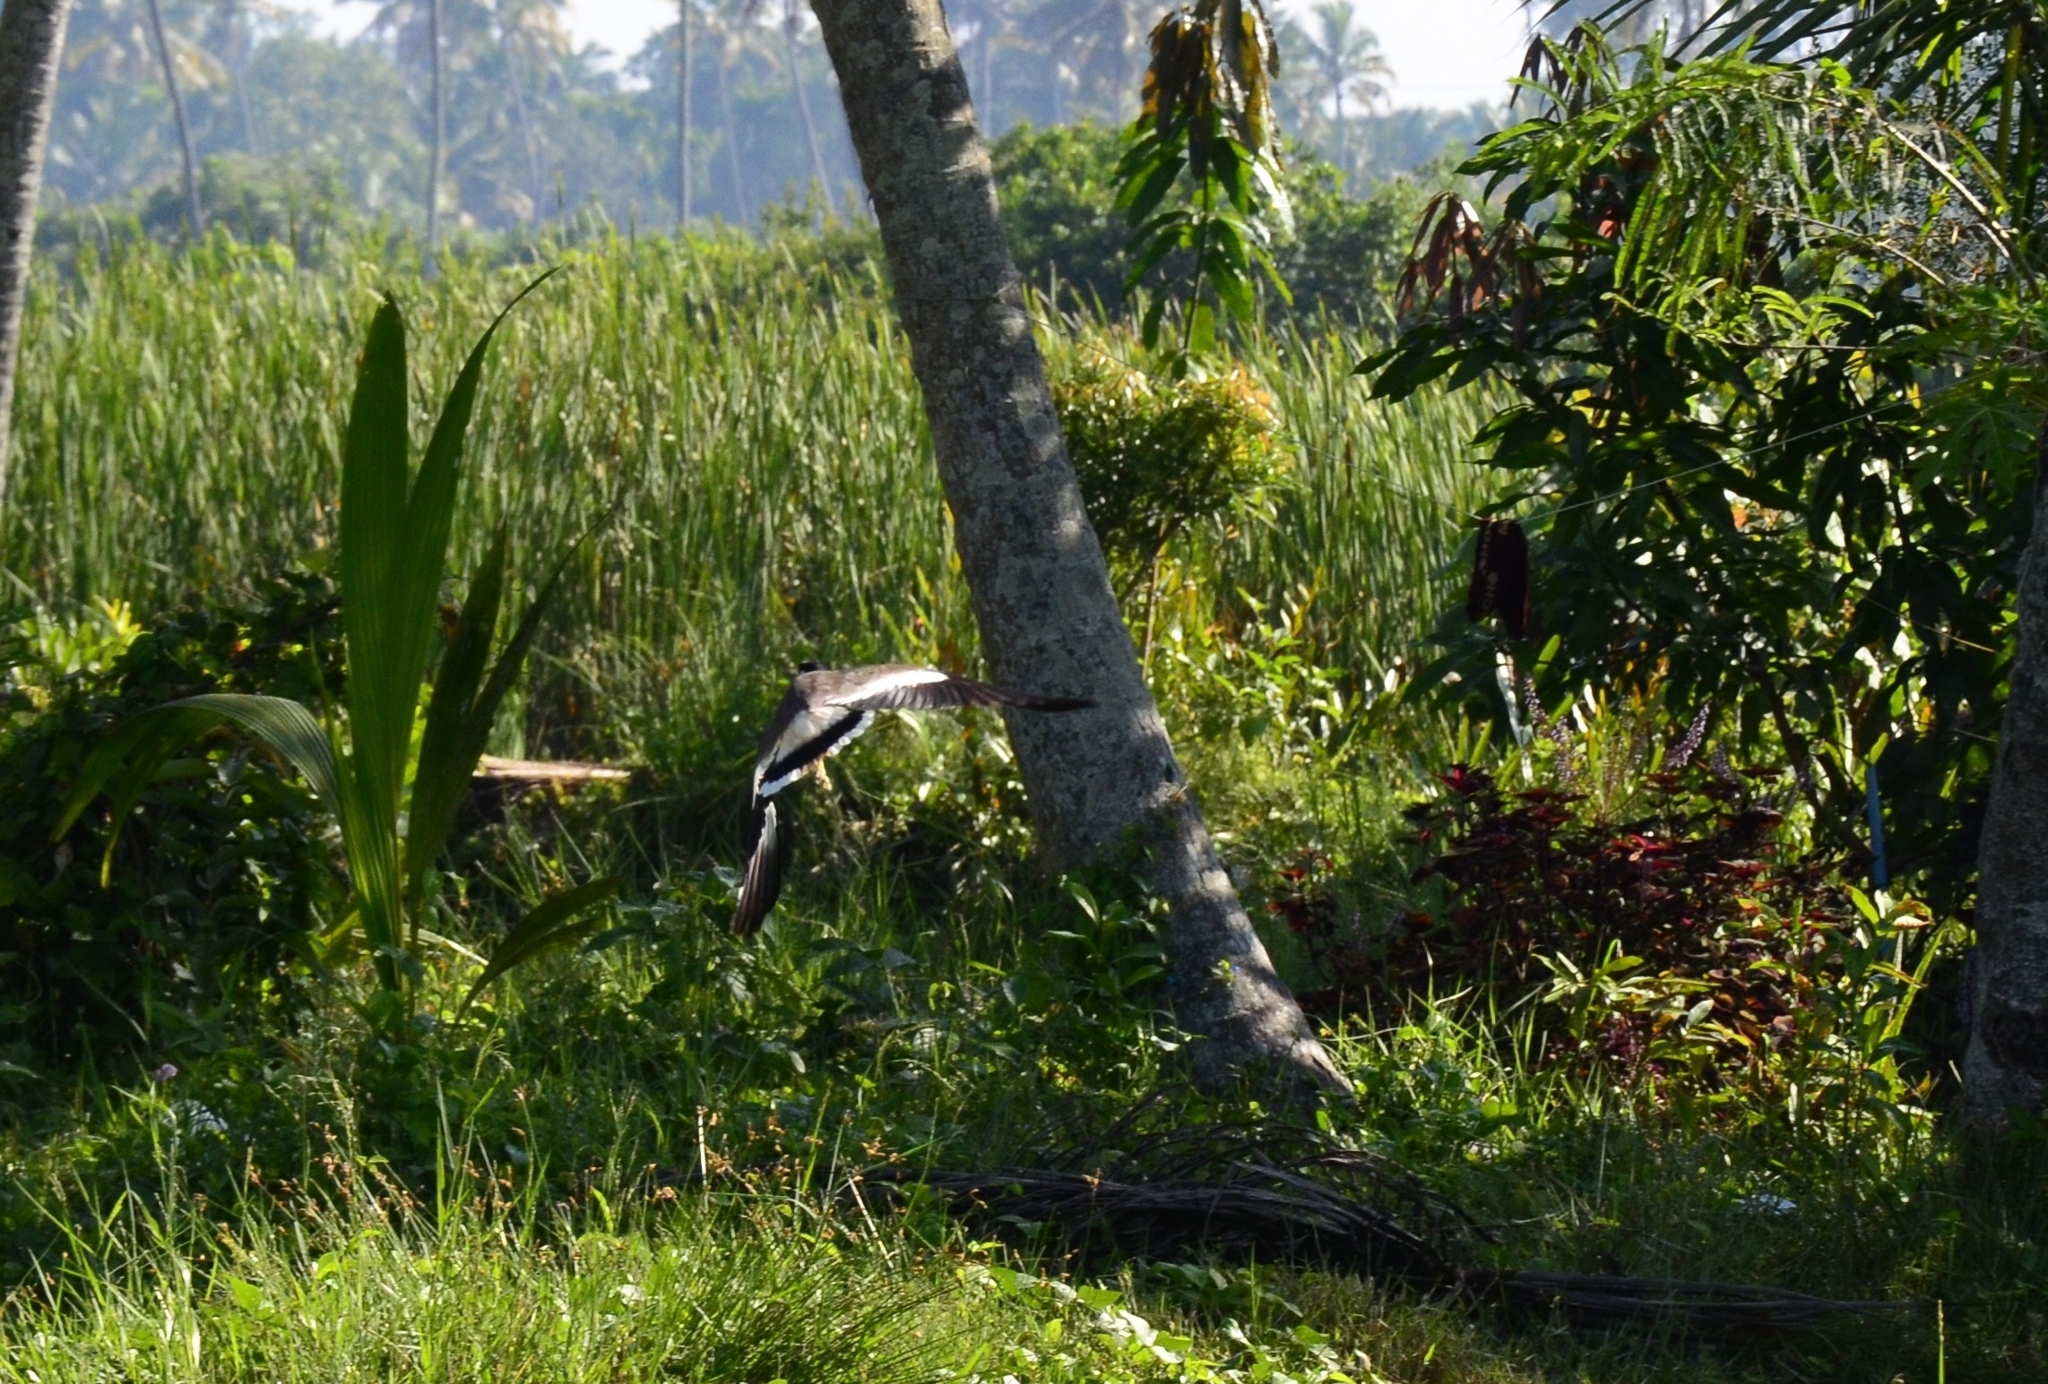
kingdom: Animalia
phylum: Chordata
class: Aves
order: Charadriiformes
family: Charadriidae
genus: Vanellus
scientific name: Vanellus indicus
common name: Red-wattled lapwing
